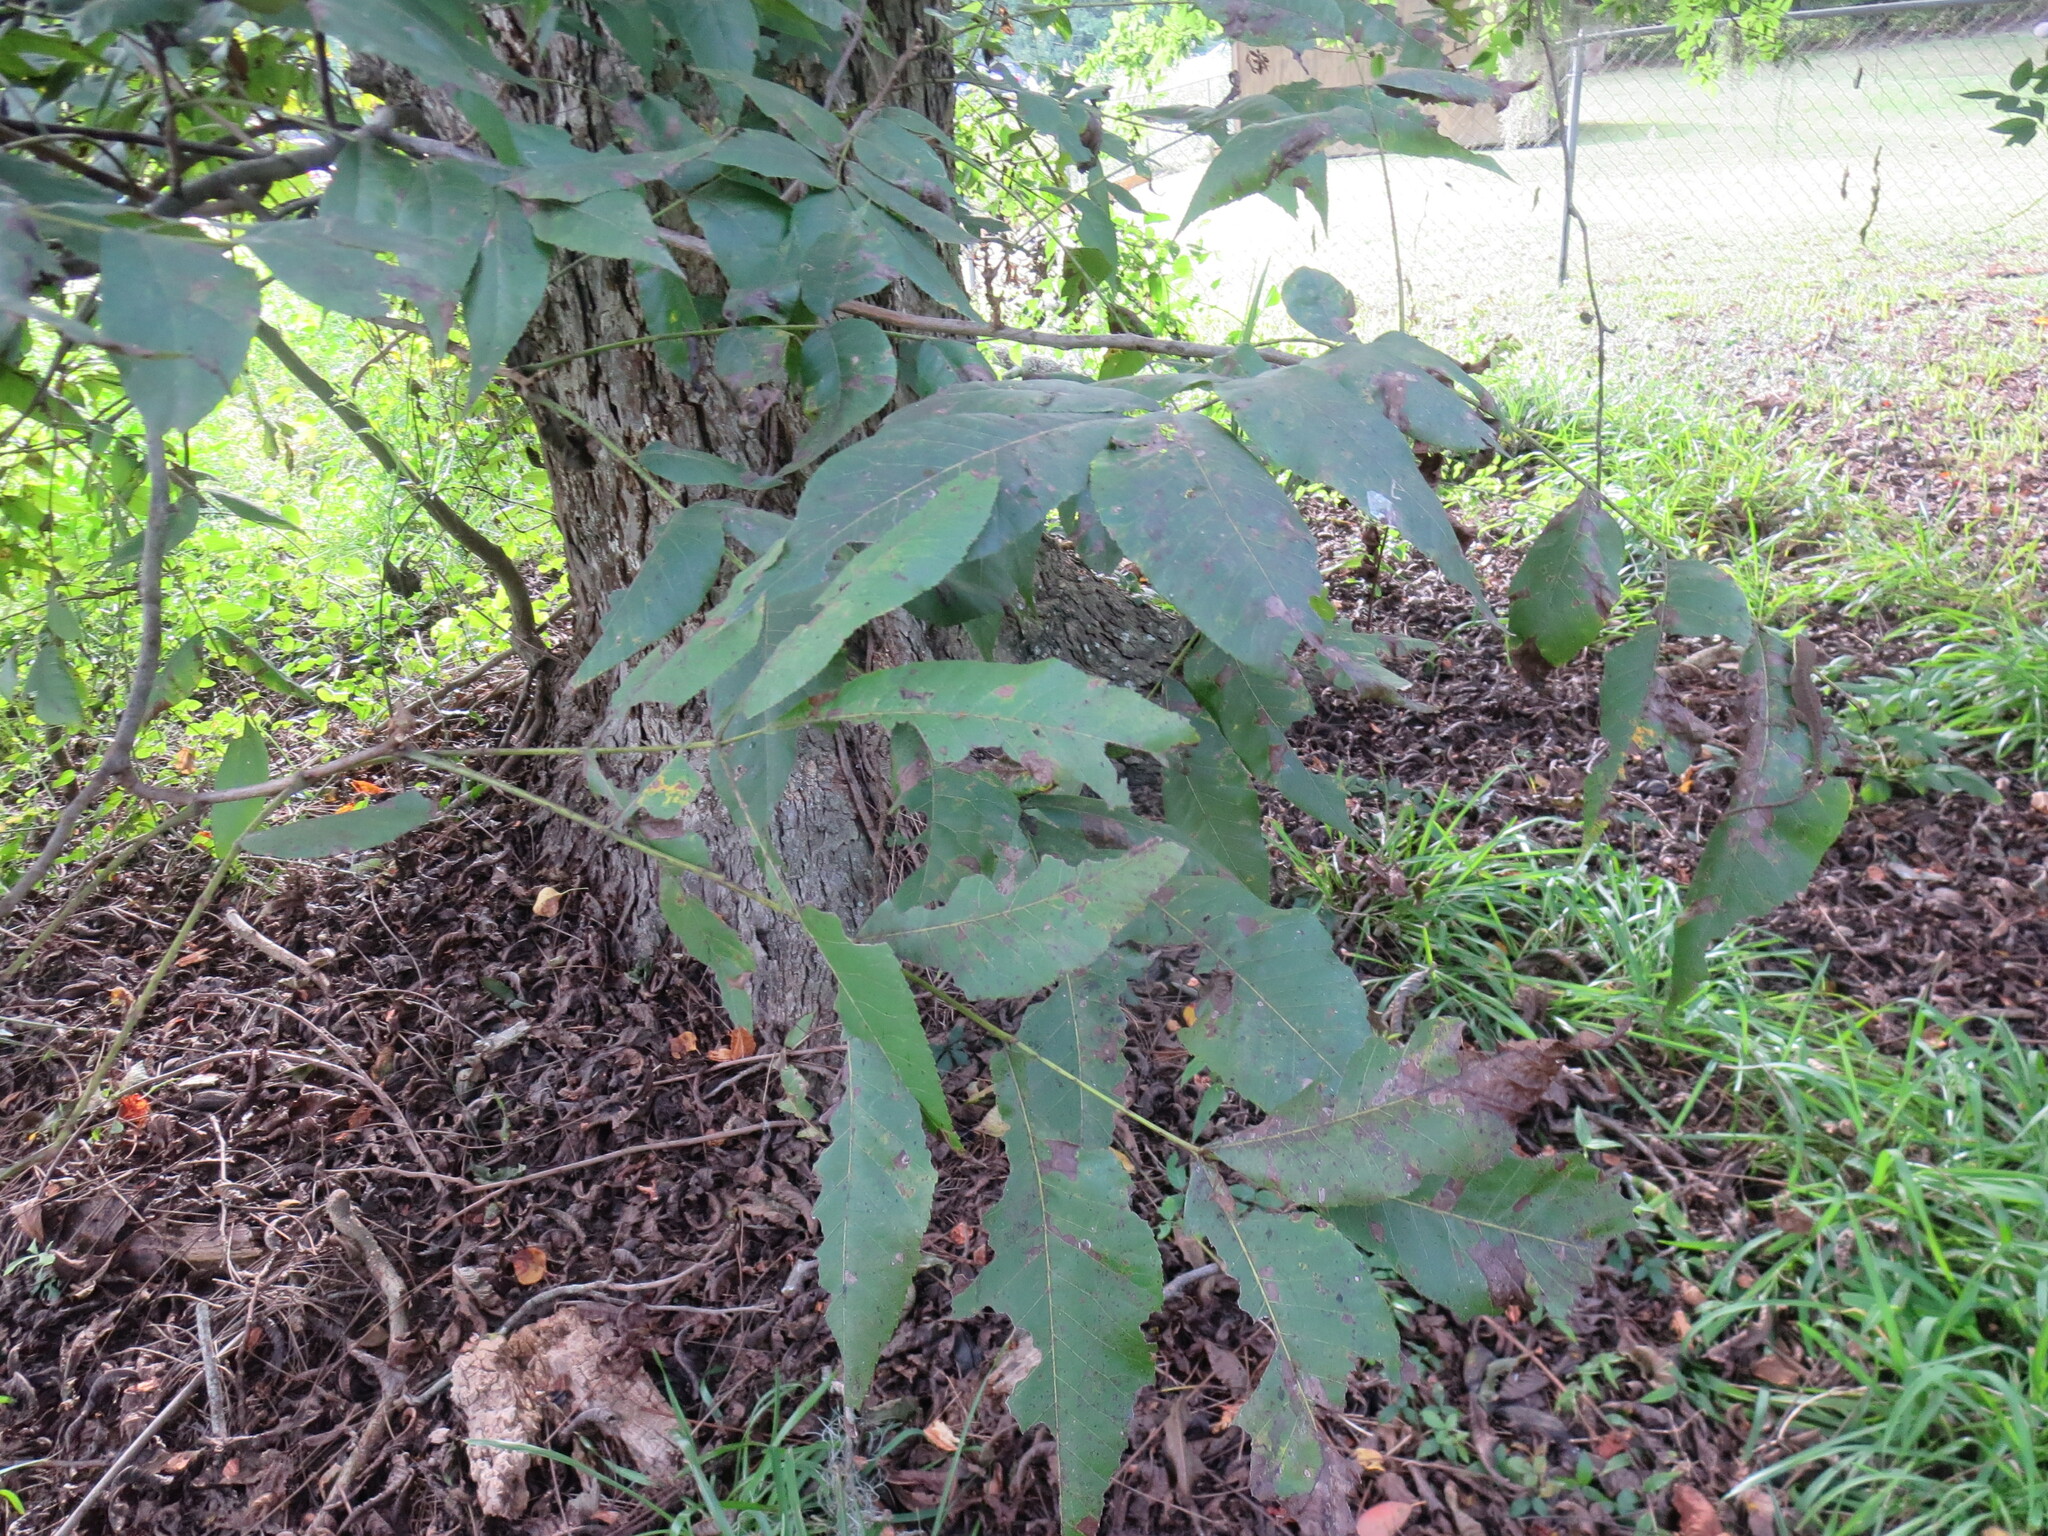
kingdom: Plantae
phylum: Tracheophyta
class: Magnoliopsida
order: Fagales
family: Juglandaceae
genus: Carya
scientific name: Carya illinoinensis
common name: Pecan
